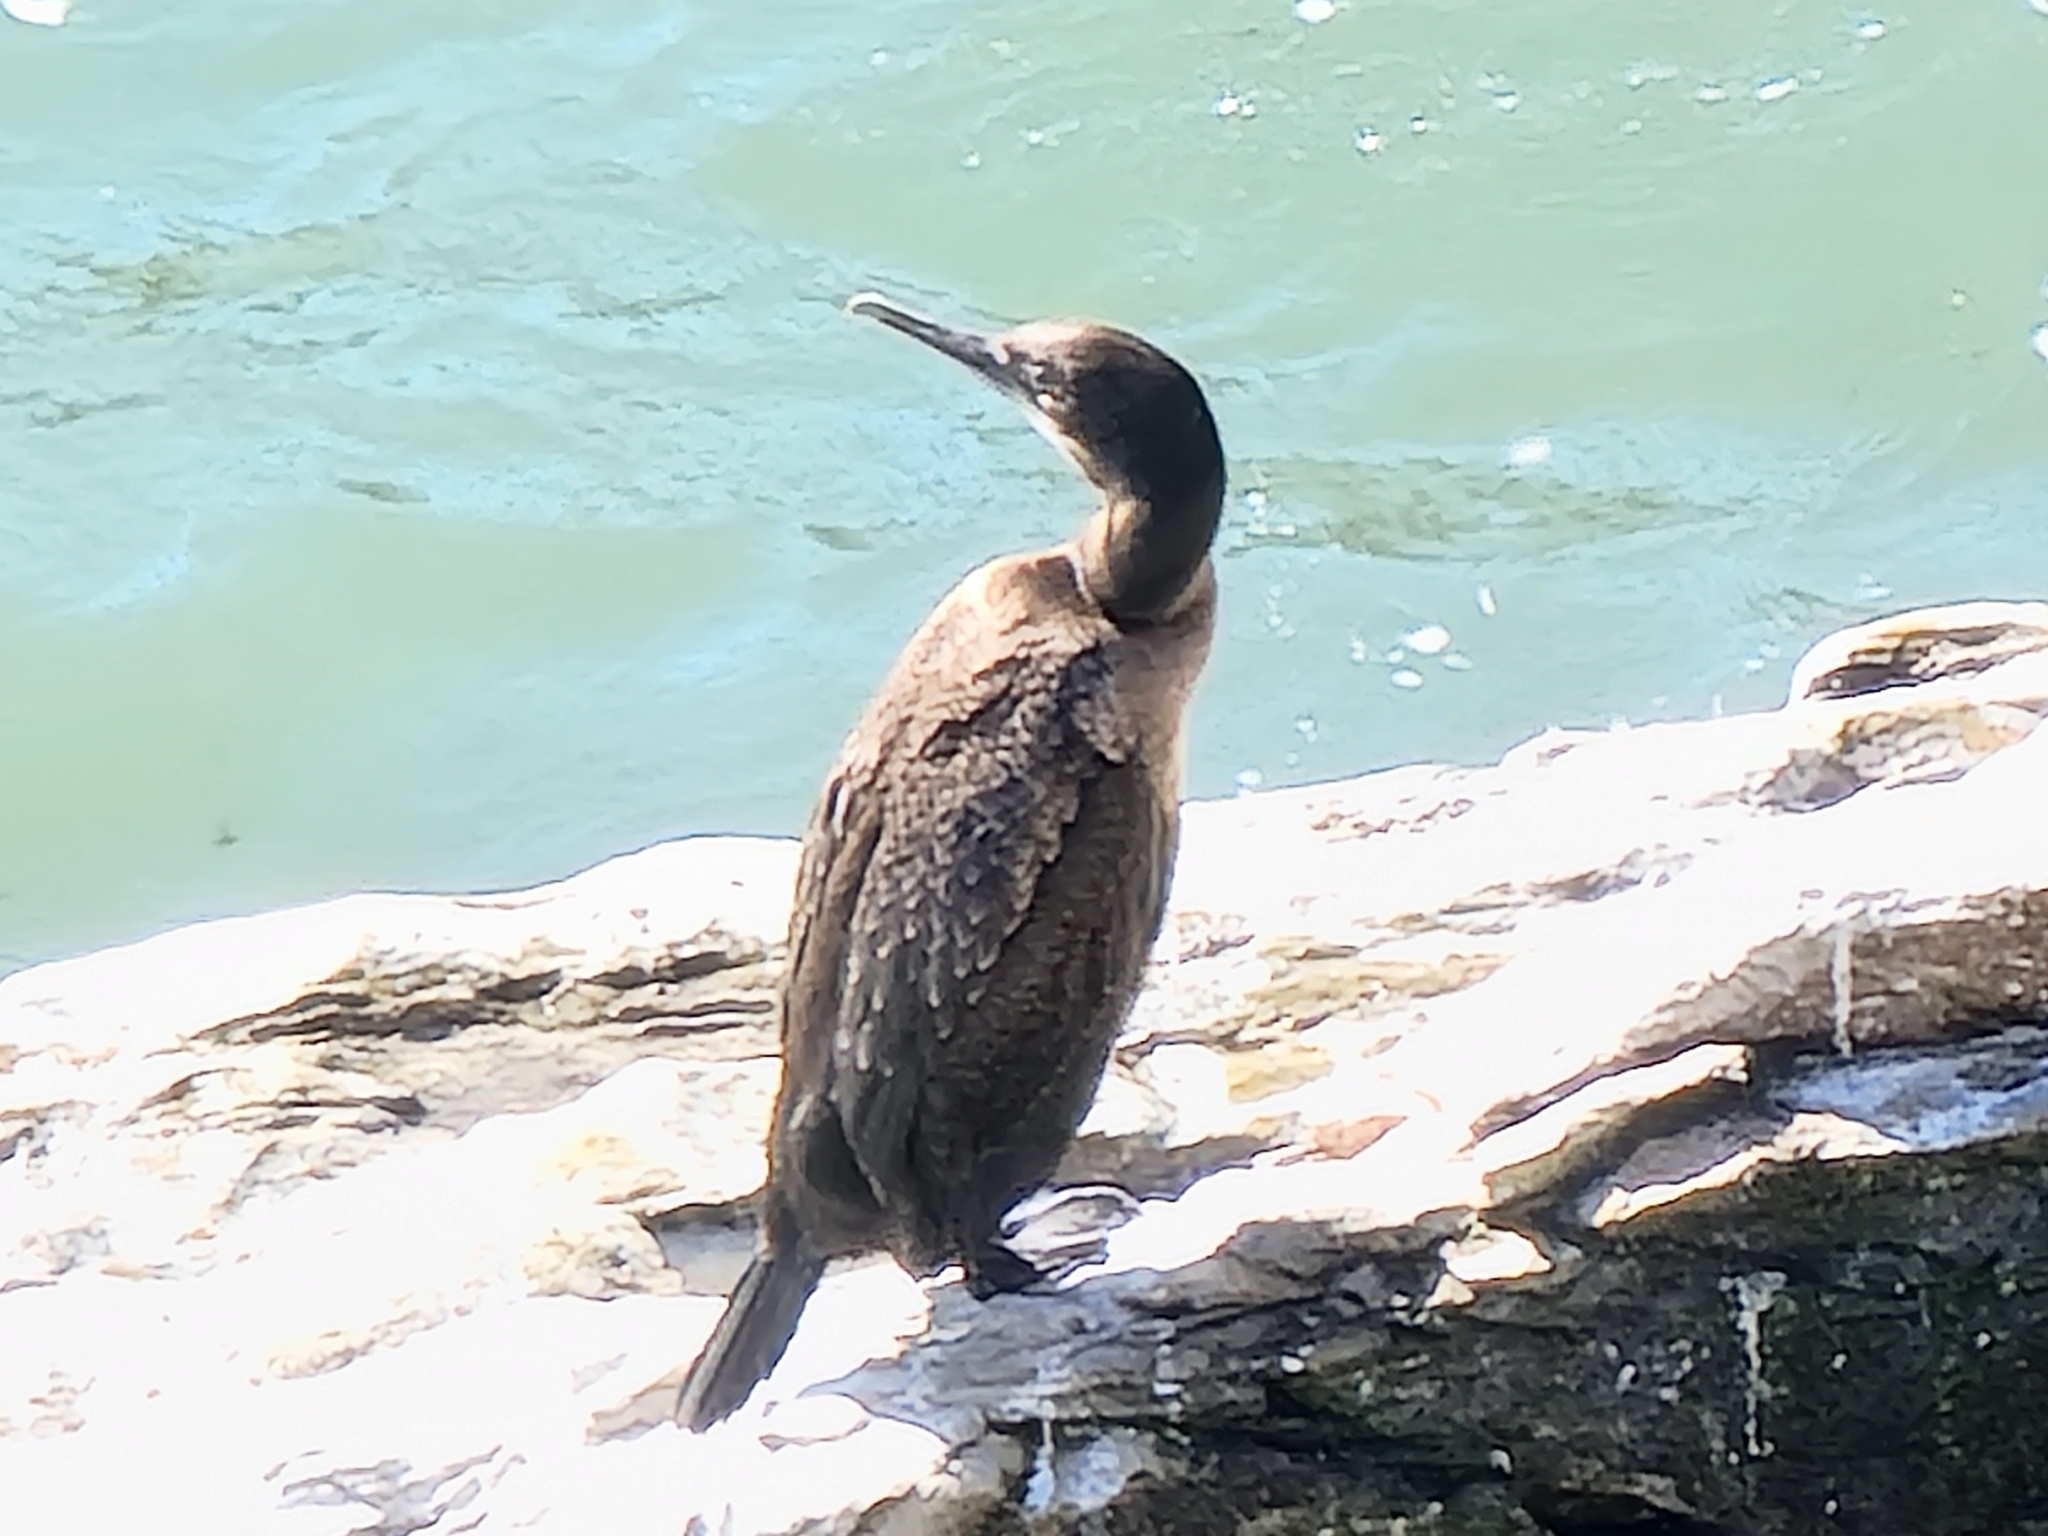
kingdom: Animalia
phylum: Chordata
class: Aves
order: Suliformes
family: Phalacrocoracidae
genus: Urile
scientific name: Urile penicillatus
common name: Brandt's cormorant
